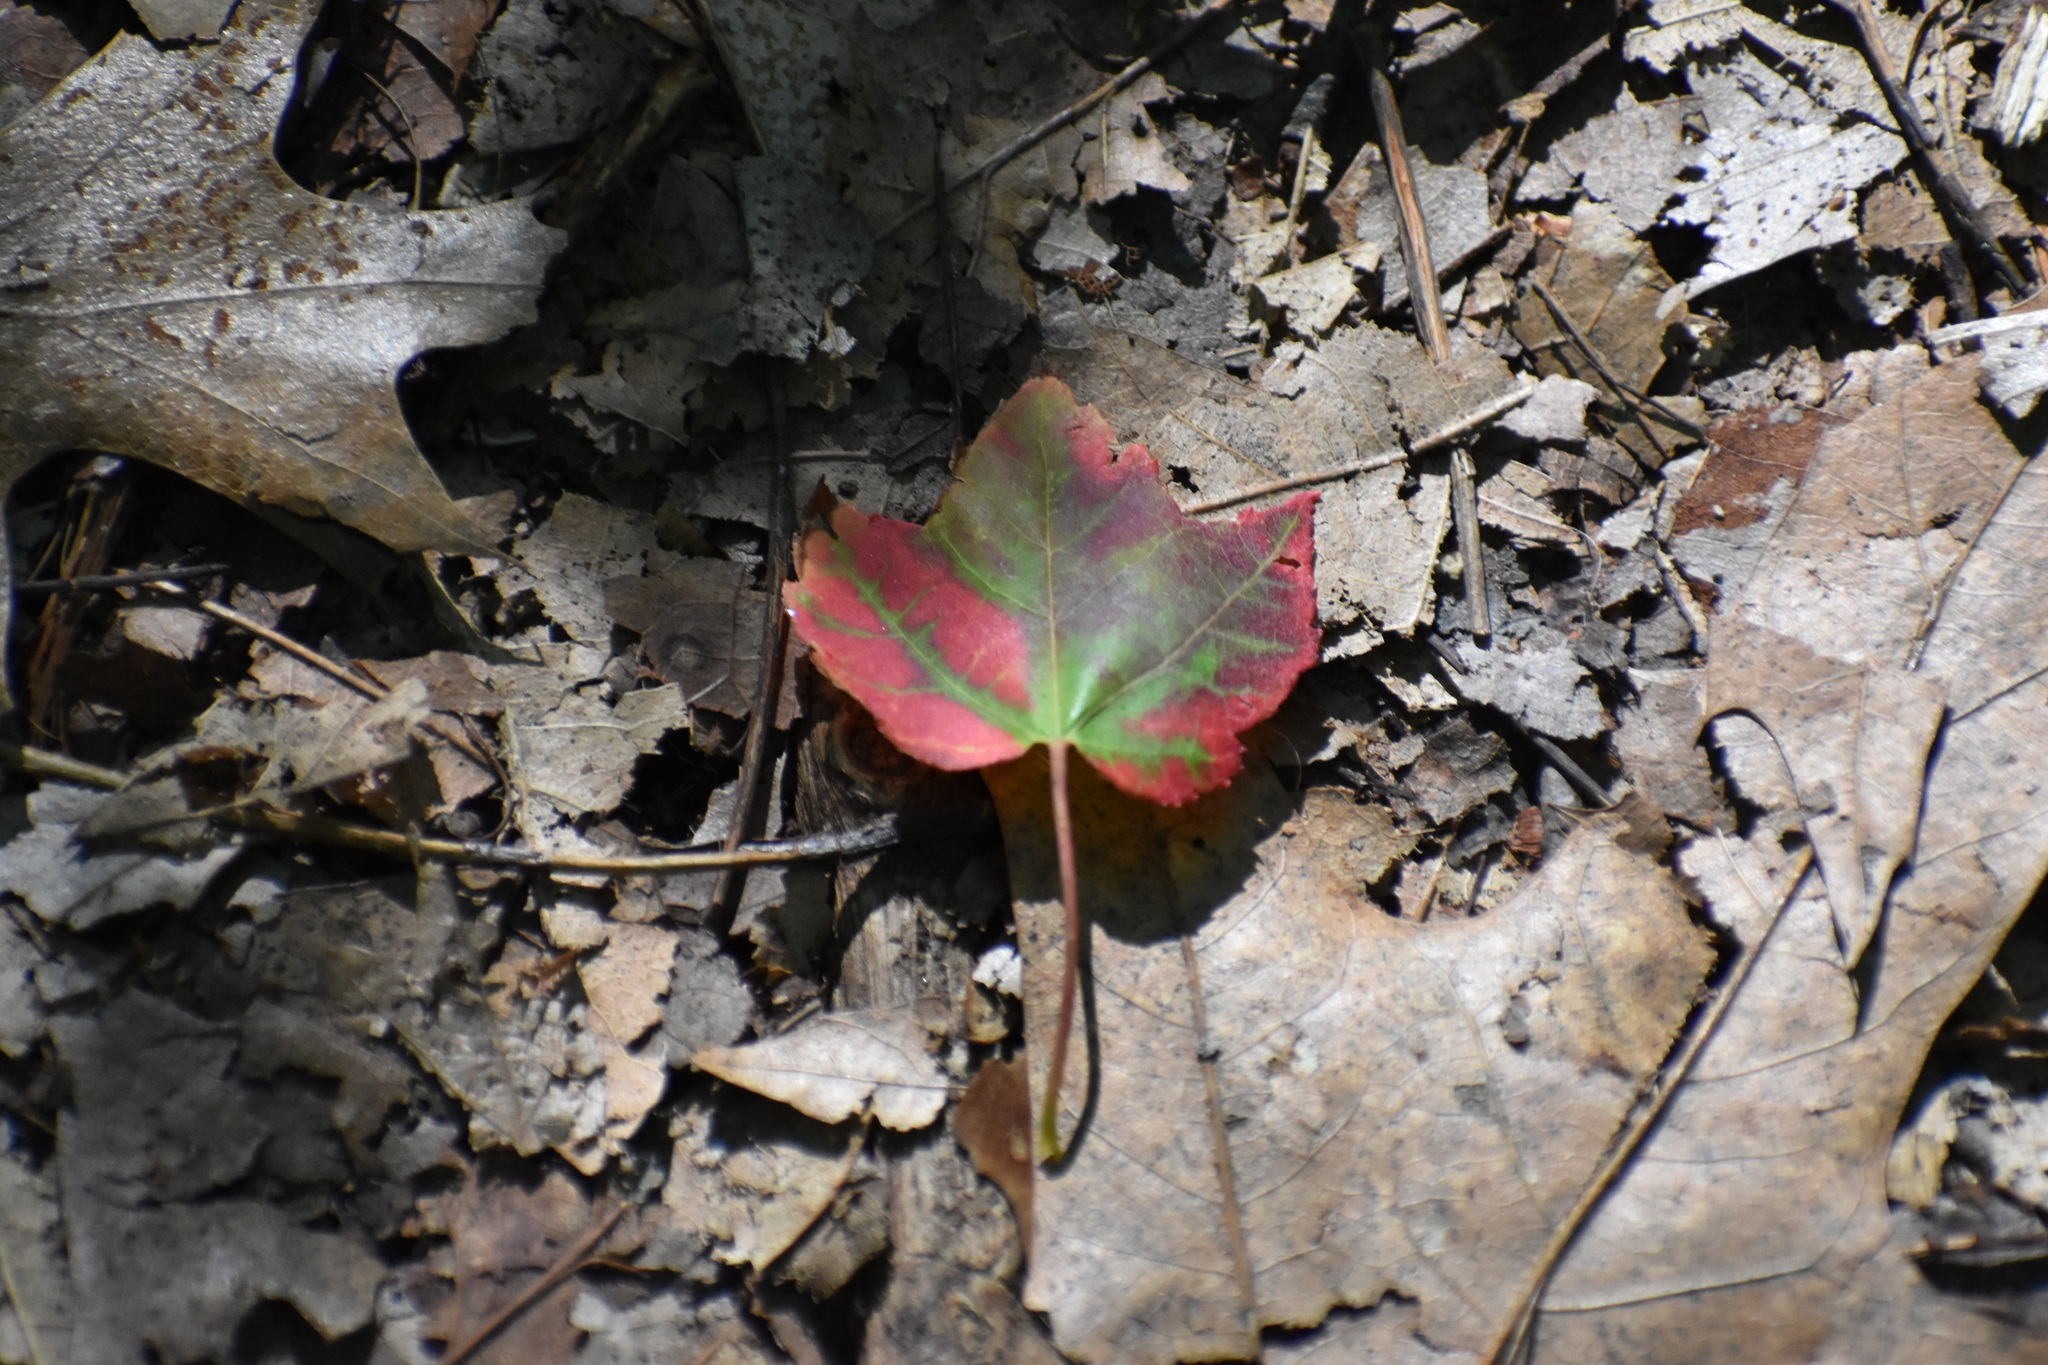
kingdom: Plantae
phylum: Tracheophyta
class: Magnoliopsida
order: Sapindales
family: Sapindaceae
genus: Acer
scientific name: Acer rubrum
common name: Red maple
